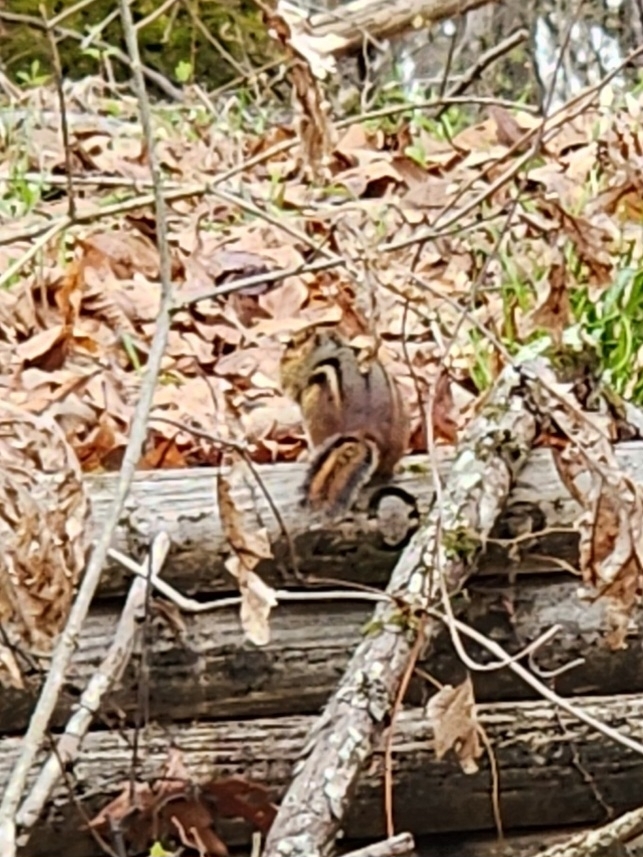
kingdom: Animalia
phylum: Chordata
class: Mammalia
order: Rodentia
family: Sciuridae
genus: Tamias
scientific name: Tamias striatus
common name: Eastern chipmunk
